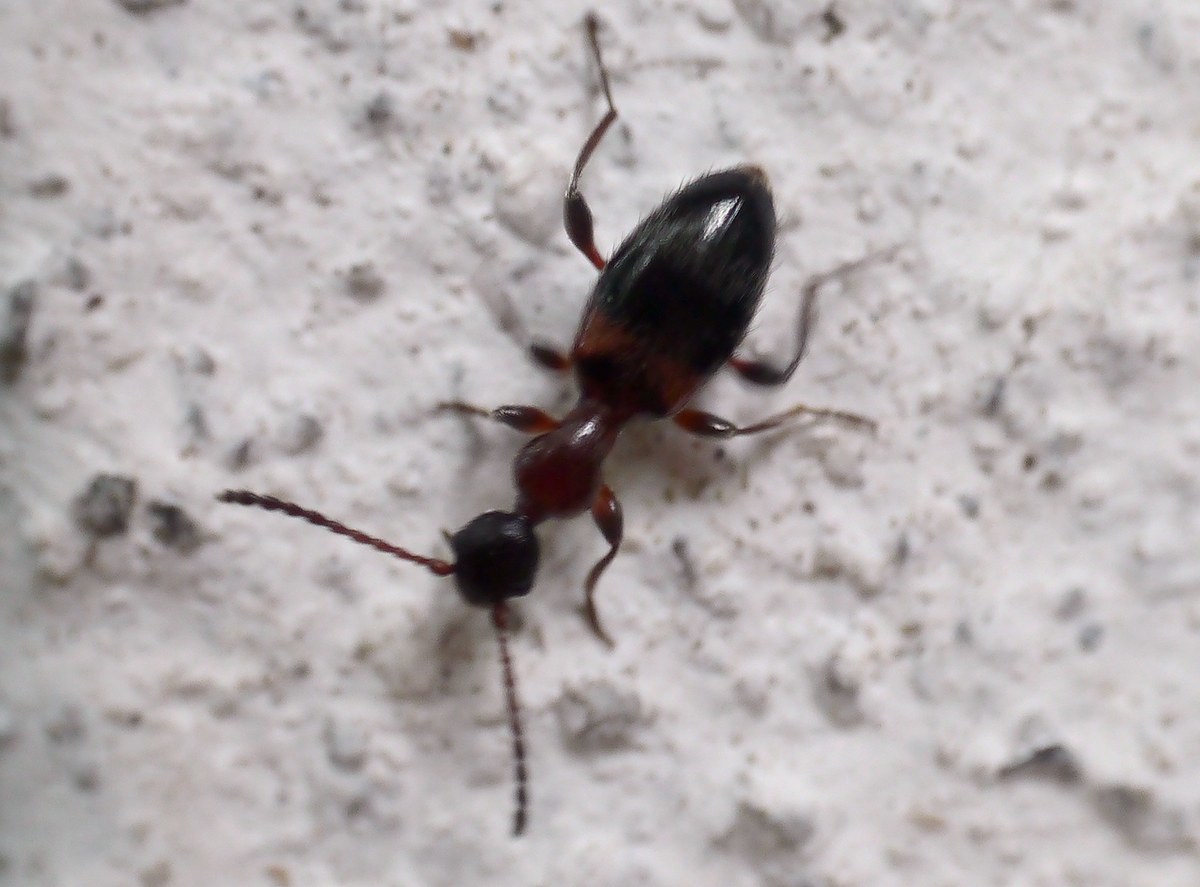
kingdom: Animalia
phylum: Arthropoda
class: Insecta
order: Coleoptera
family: Anthicidae
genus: Anthelephila
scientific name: Anthelephila pedestris
